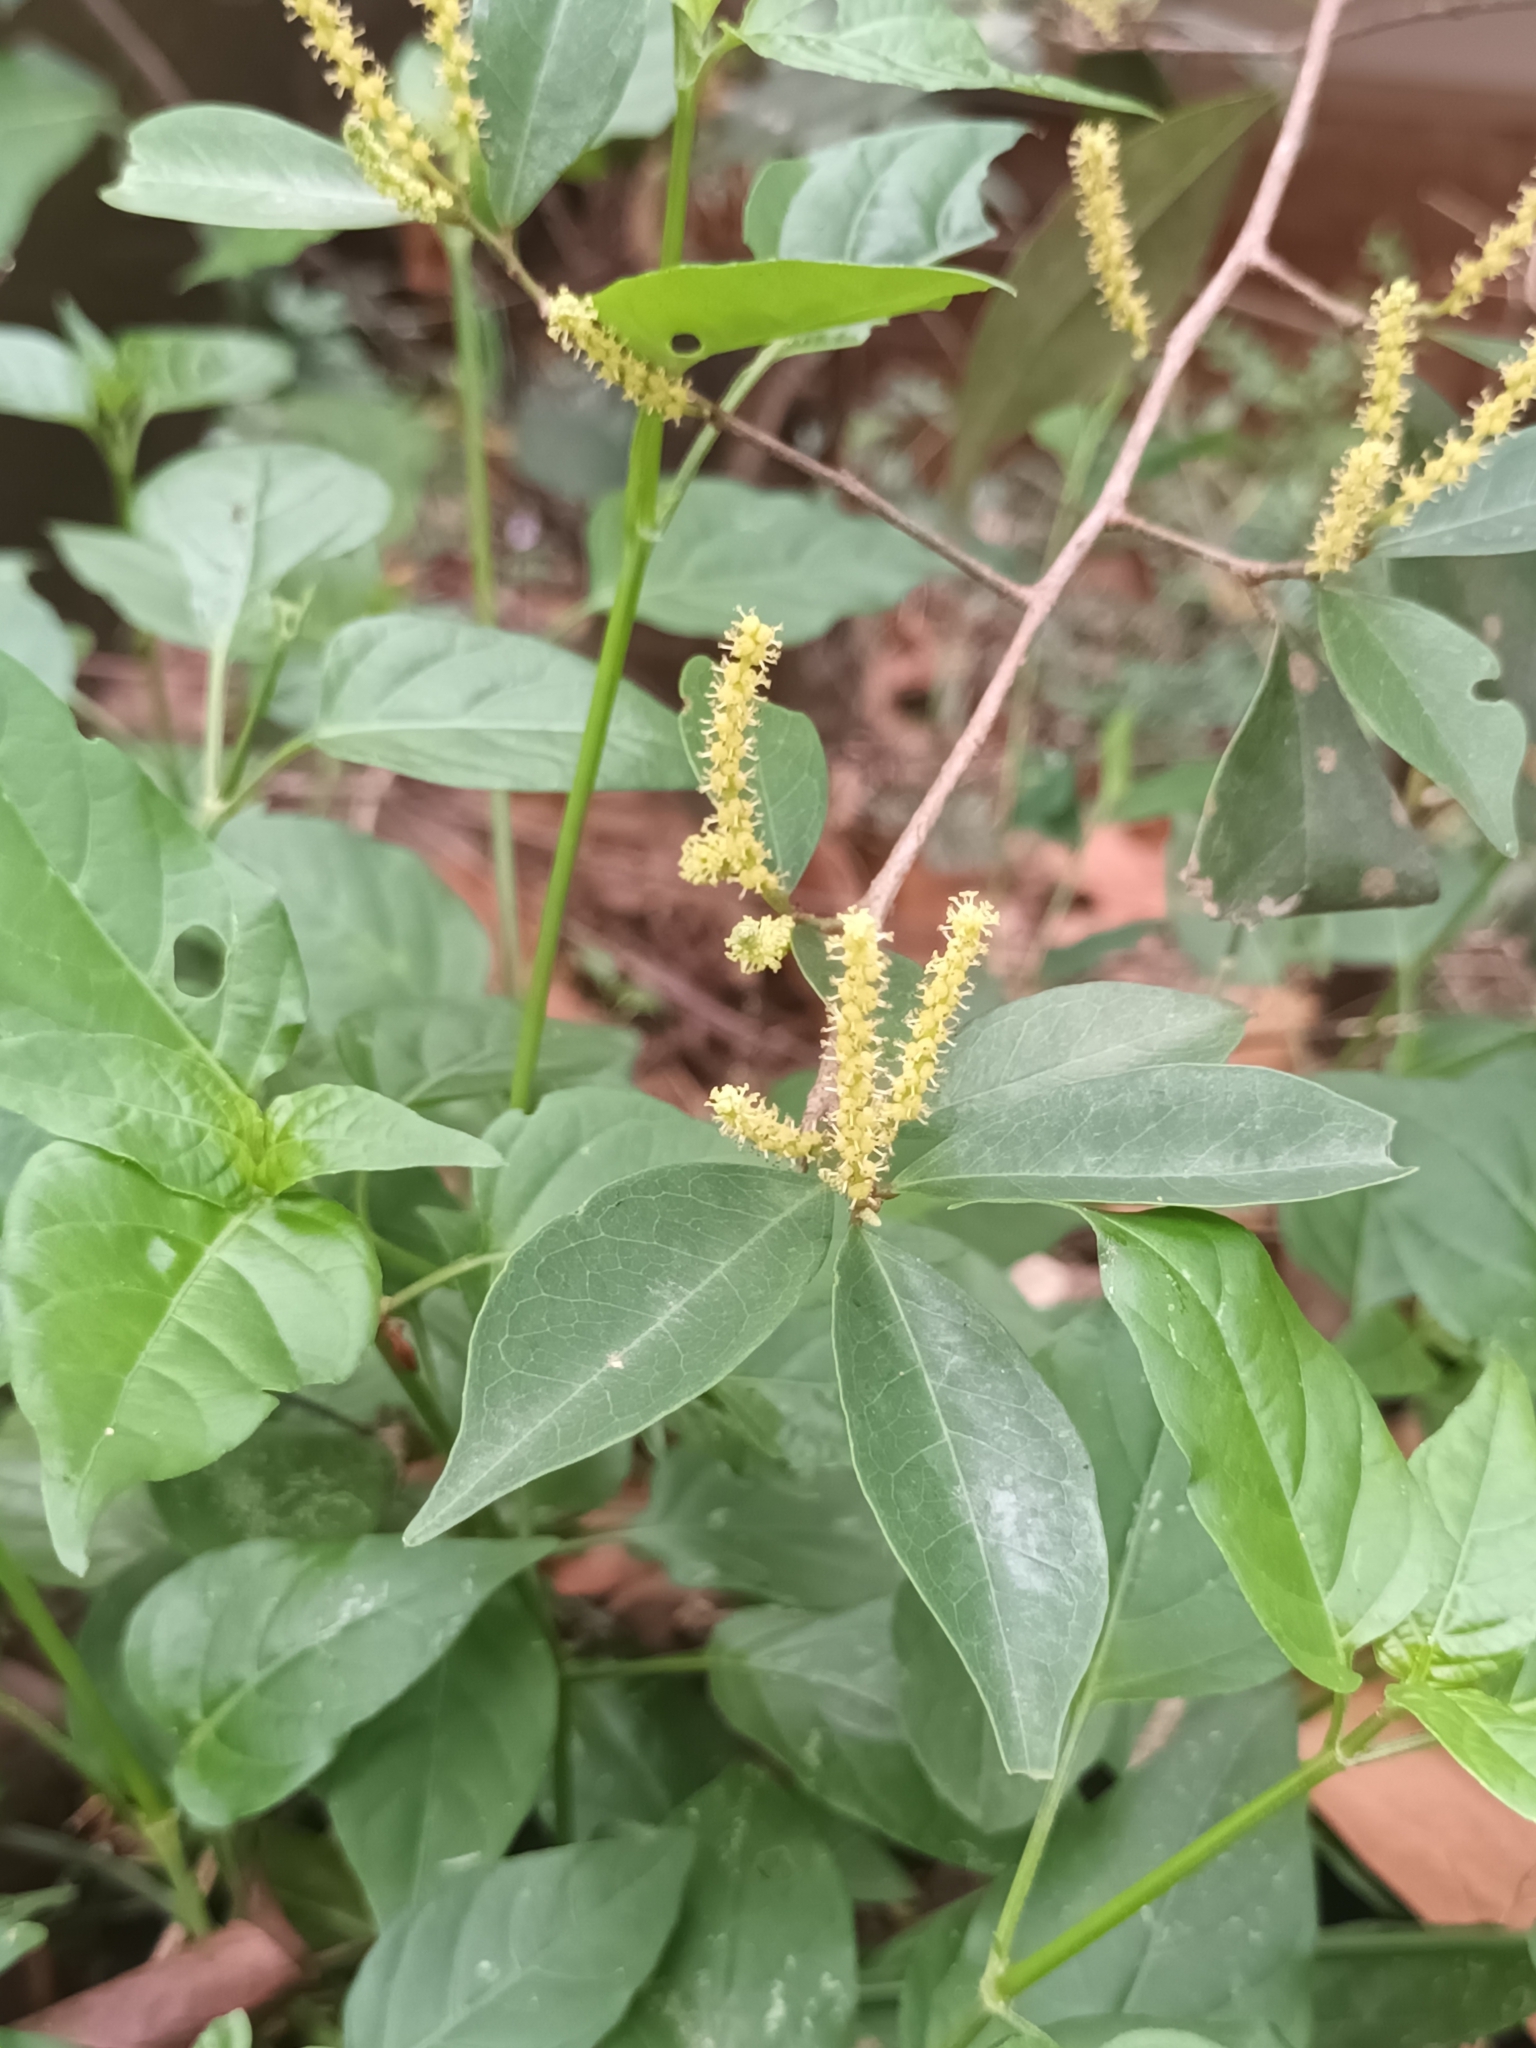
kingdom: Plantae
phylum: Tracheophyta
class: Magnoliopsida
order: Malpighiales
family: Phyllanthaceae
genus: Antidesma
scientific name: Antidesma montanum
